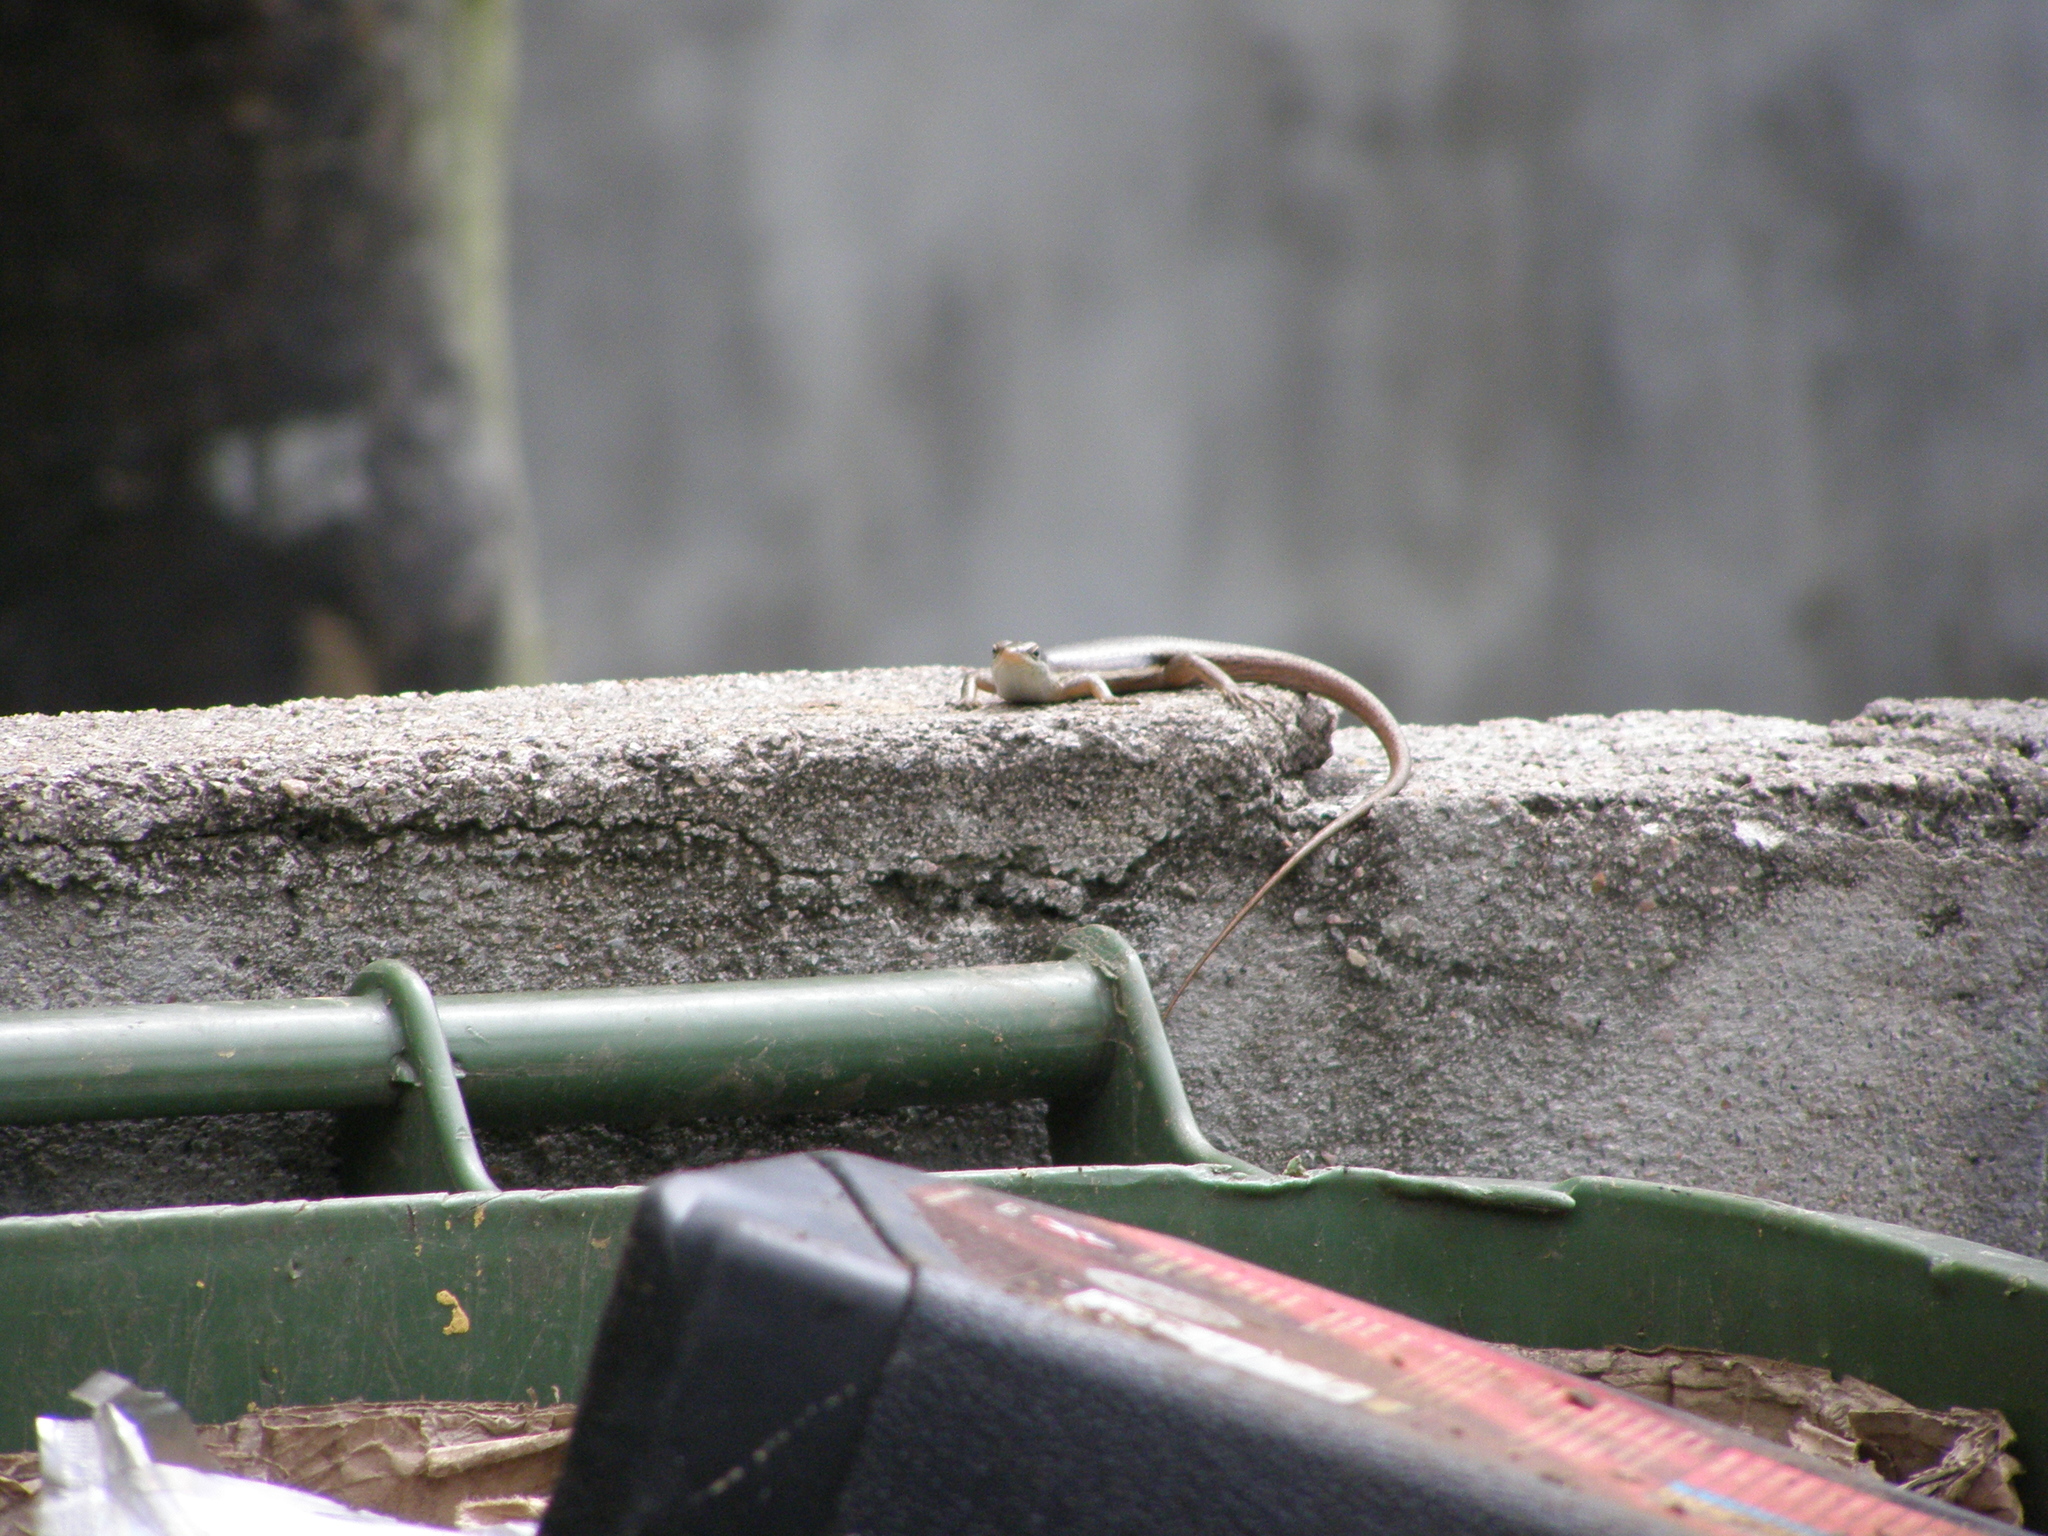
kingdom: Animalia
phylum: Chordata
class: Squamata
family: Scincidae
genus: Trachylepis
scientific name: Trachylepis sechellensis
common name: Seychelles skink
